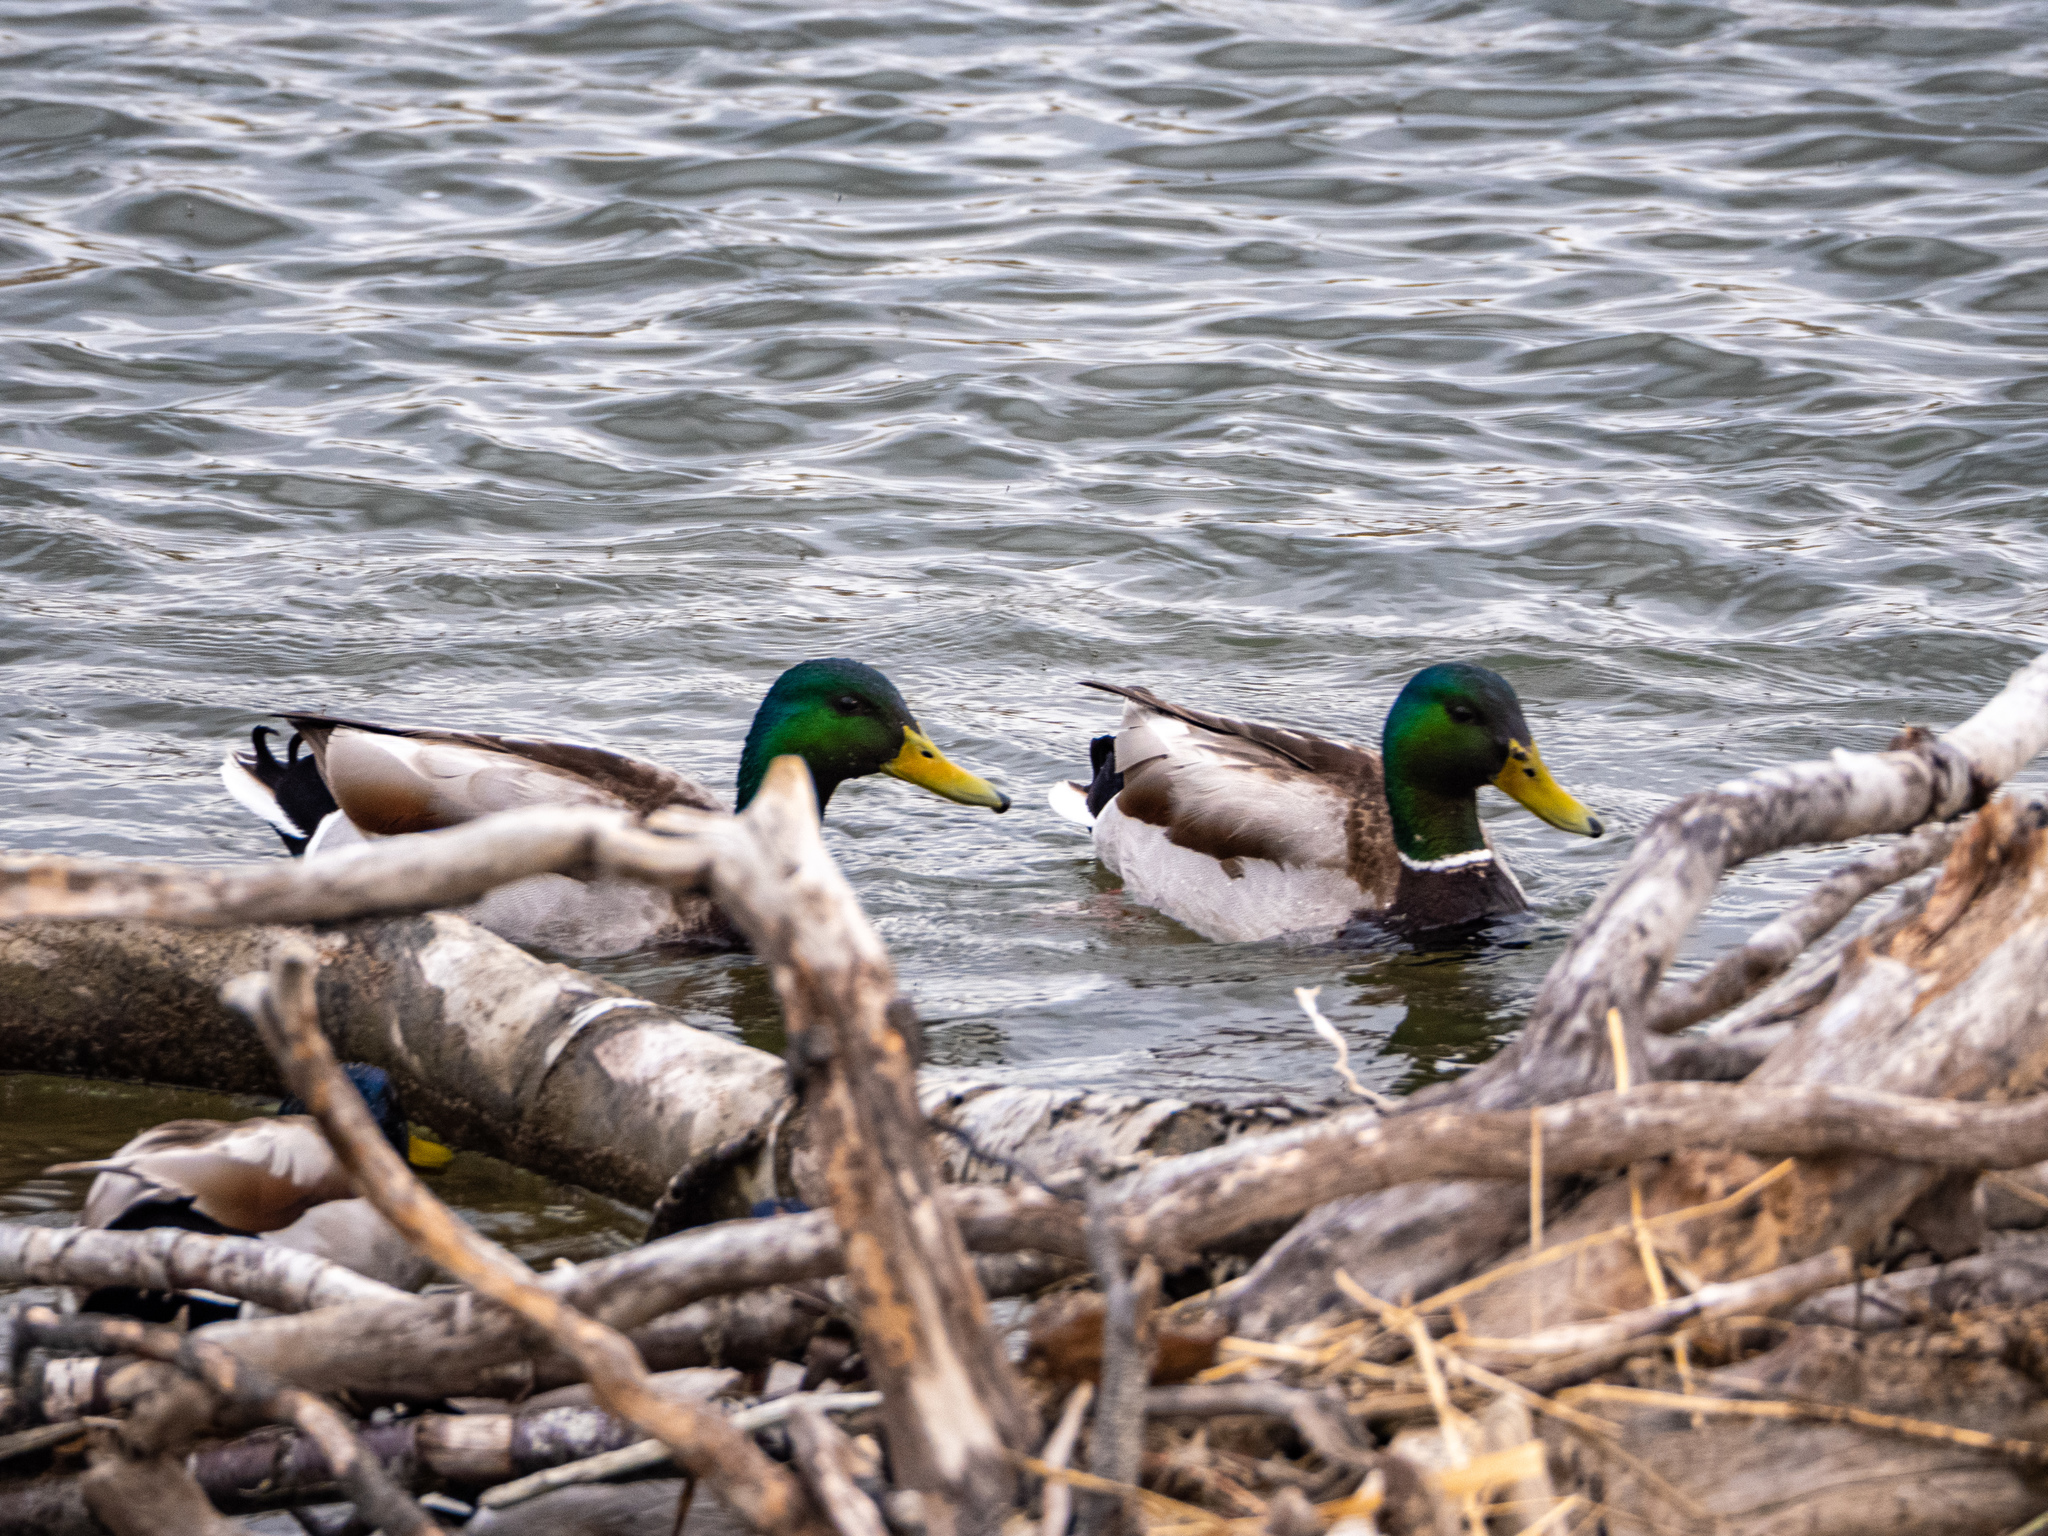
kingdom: Animalia
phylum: Chordata
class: Aves
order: Anseriformes
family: Anatidae
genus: Anas
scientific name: Anas platyrhynchos
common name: Mallard
